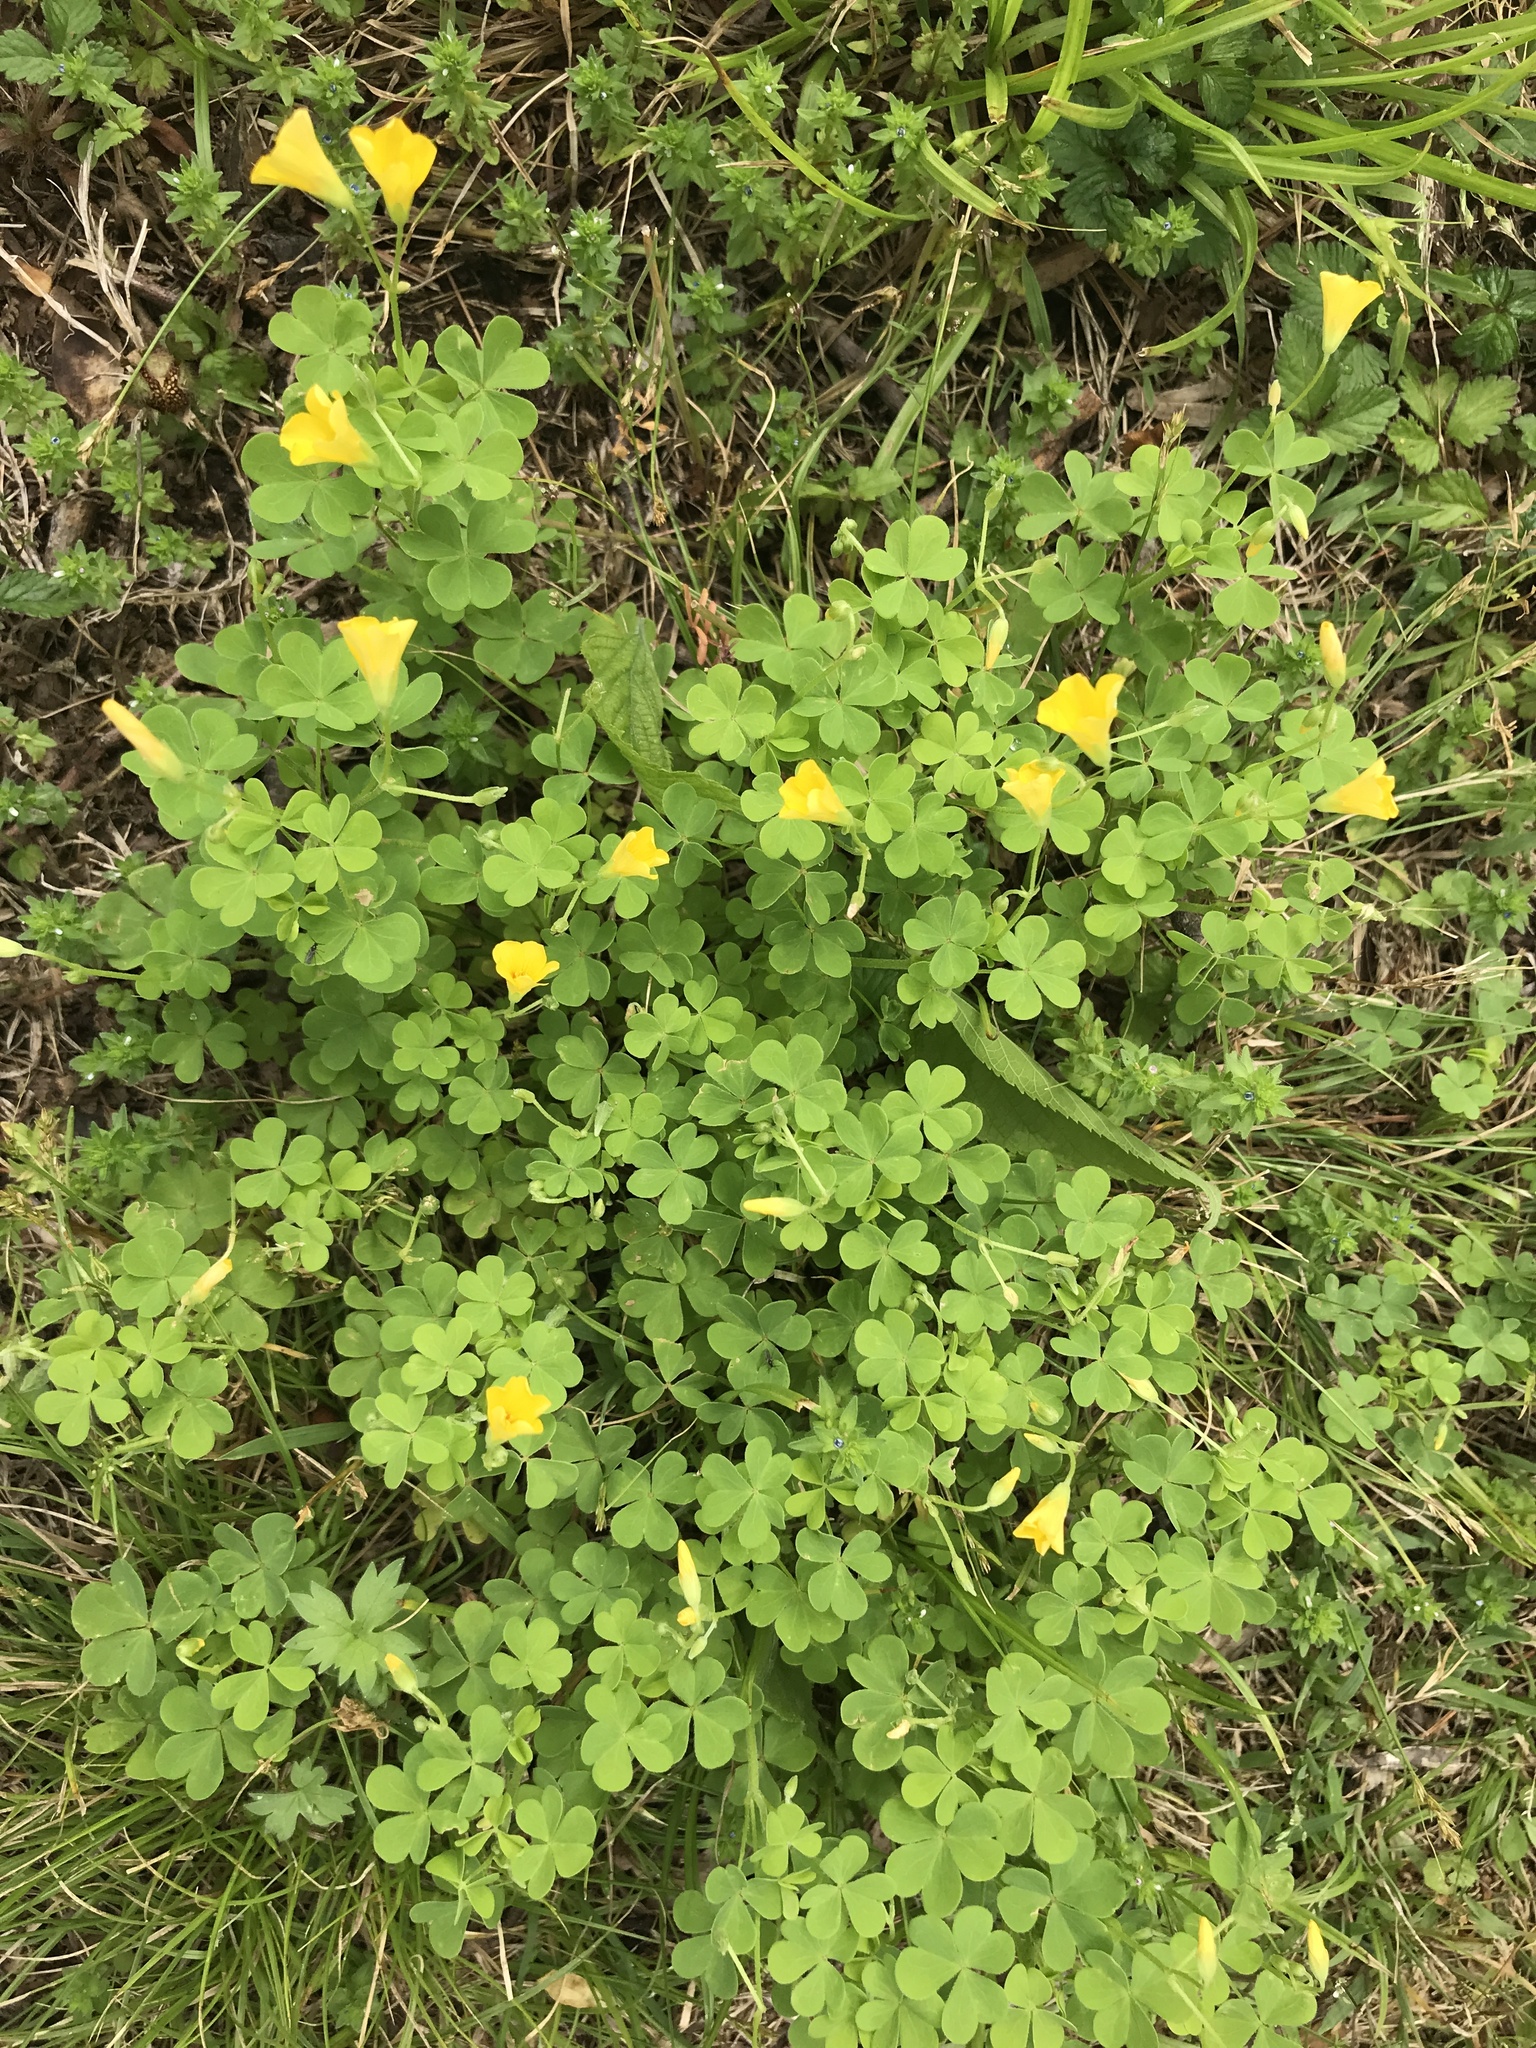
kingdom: Plantae
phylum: Tracheophyta
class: Magnoliopsida
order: Oxalidales
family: Oxalidaceae
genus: Oxalis
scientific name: Oxalis dillenii
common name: Sussex yellow-sorrel
